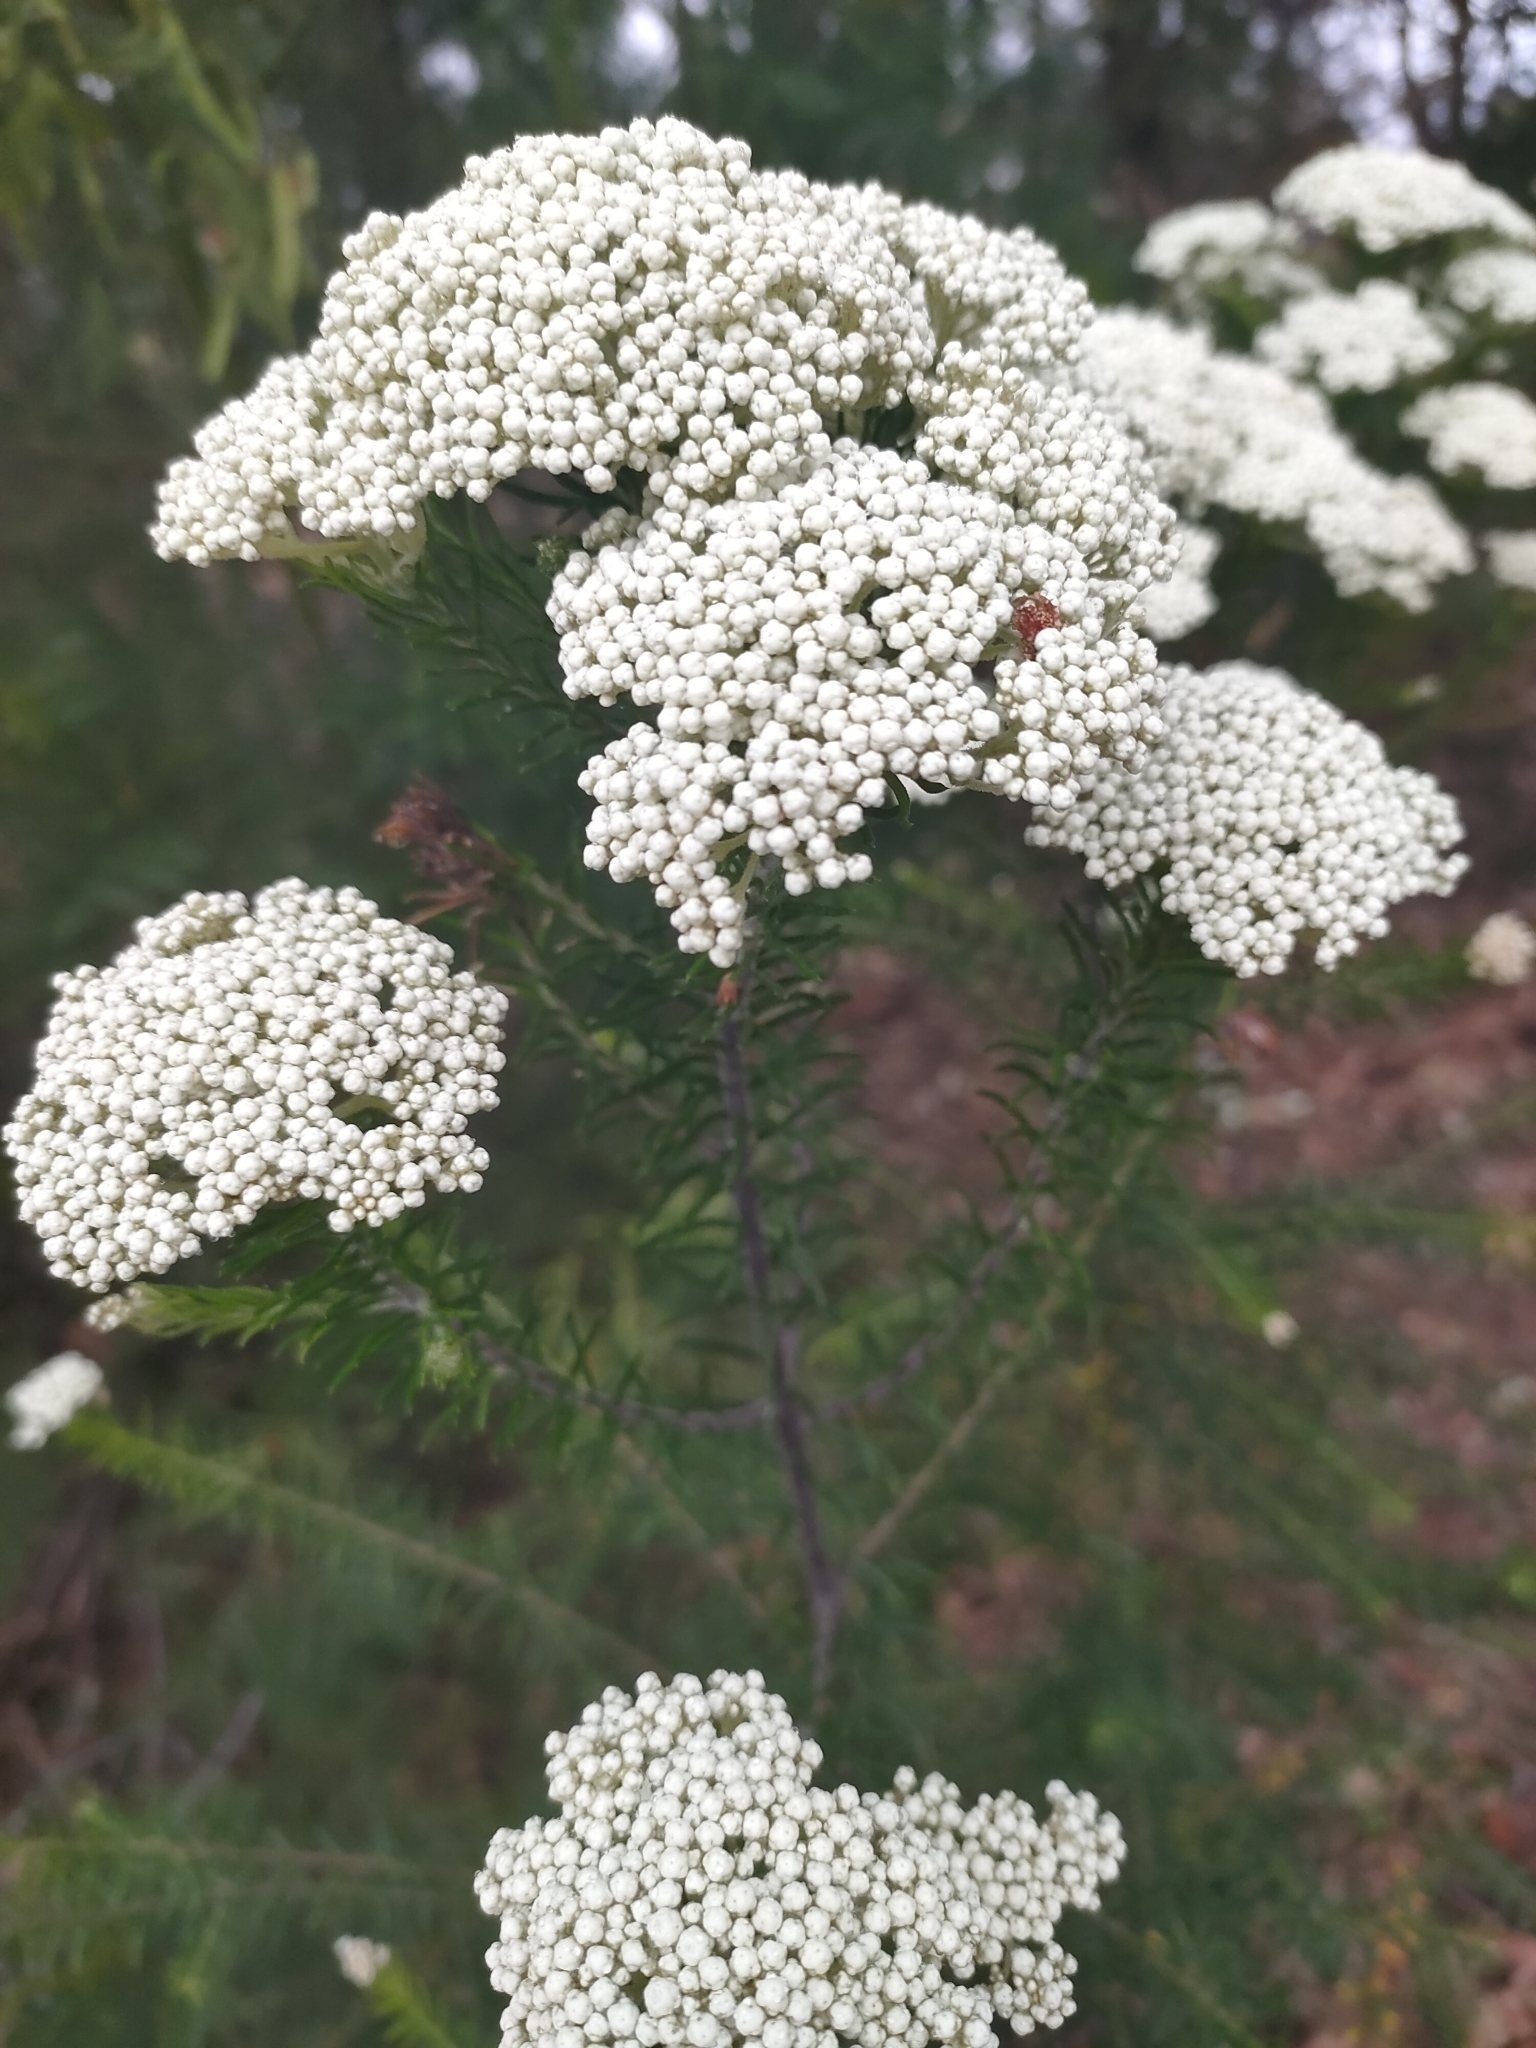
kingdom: Plantae
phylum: Tracheophyta
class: Magnoliopsida
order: Asterales
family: Asteraceae
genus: Ozothamnus
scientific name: Ozothamnus diosmifolius
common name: White-dogwood
